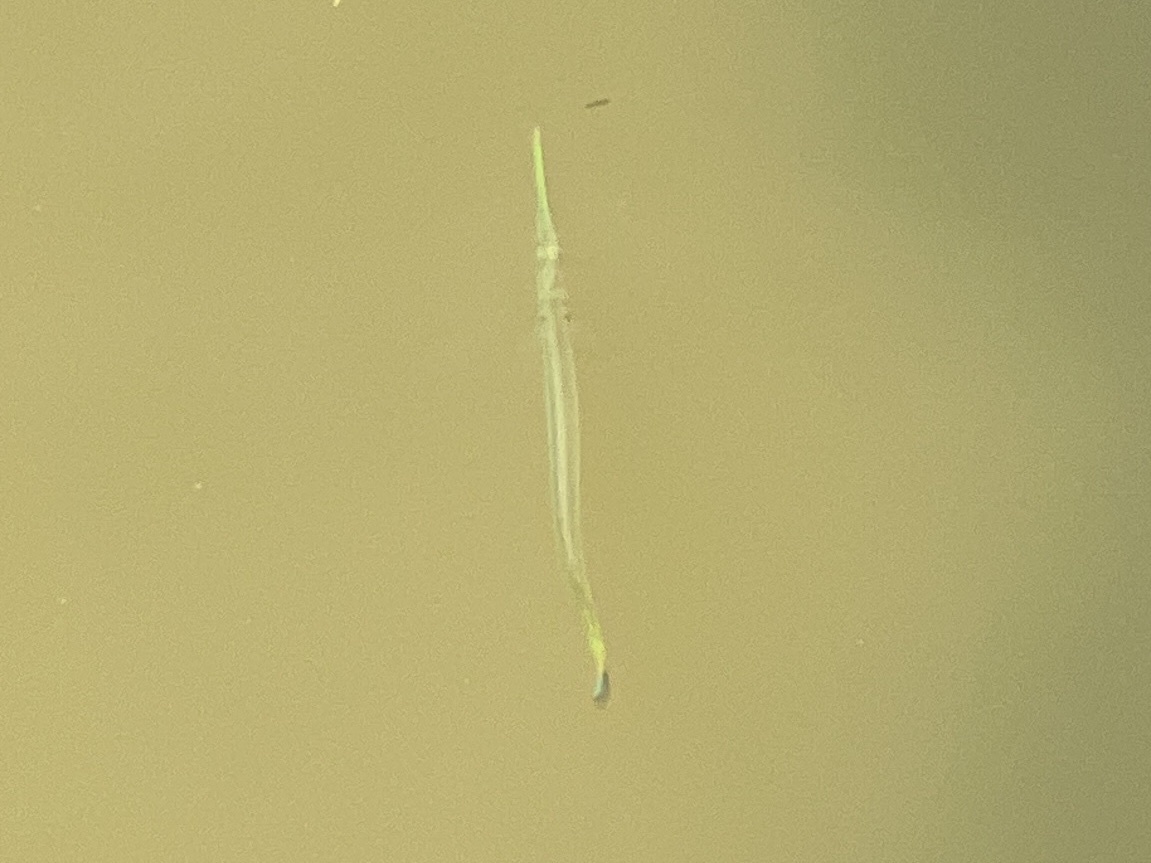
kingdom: Animalia
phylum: Chordata
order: Beloniformes
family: Belonidae
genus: Strongylura
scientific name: Strongylura marina
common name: Atlantic needlefish
